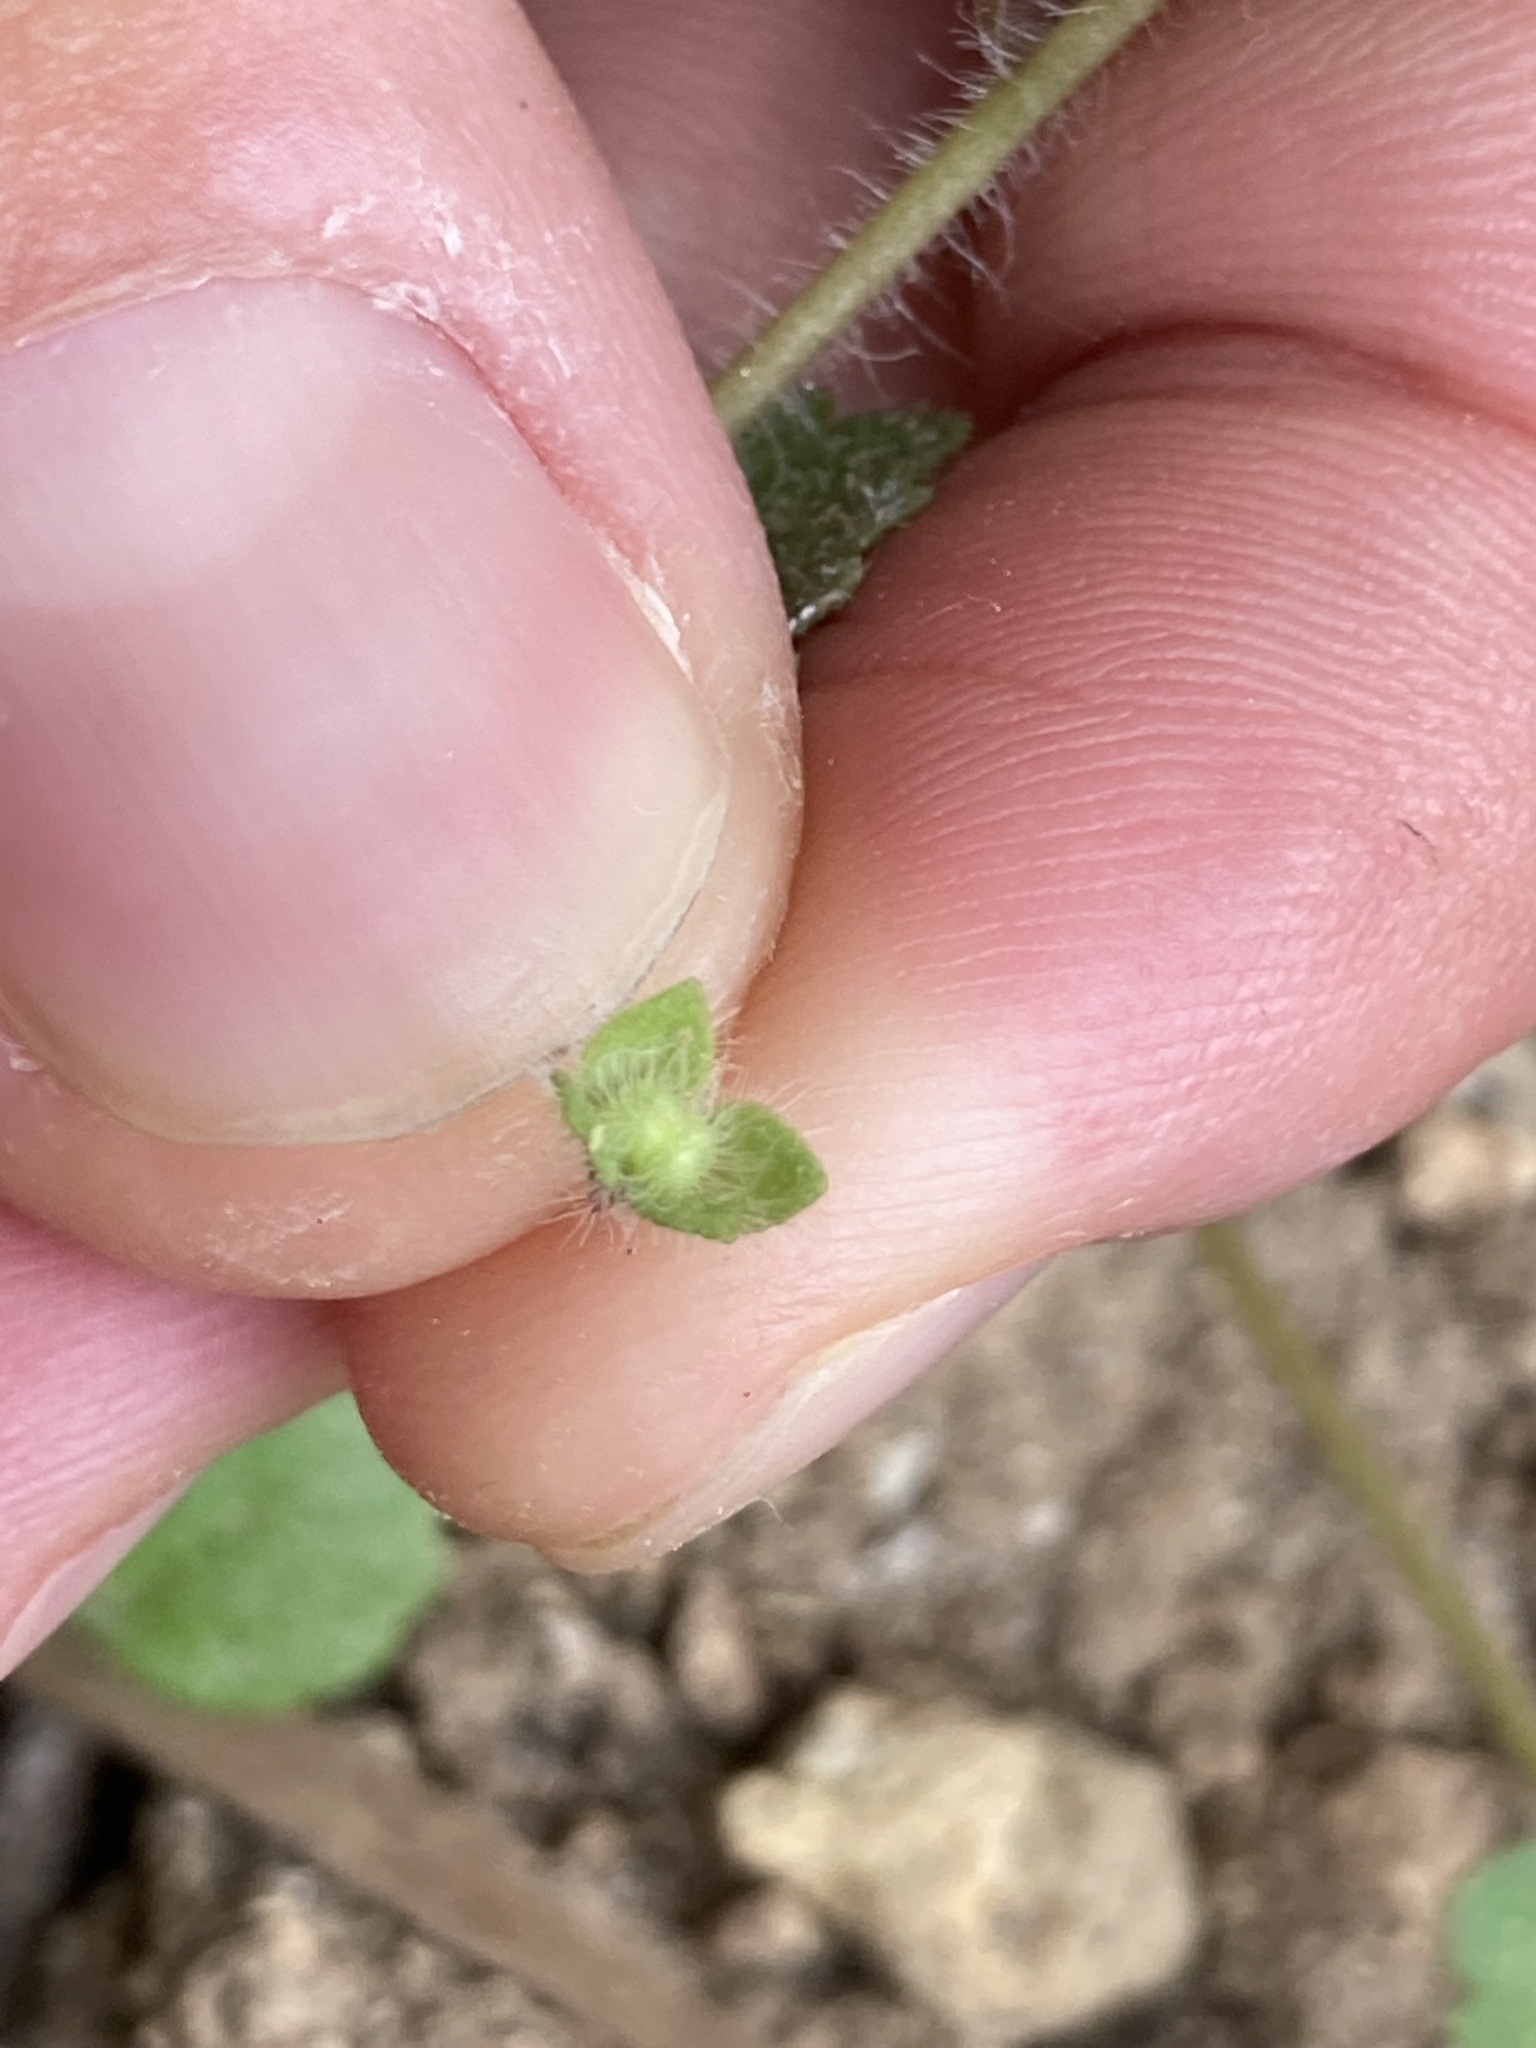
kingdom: Plantae
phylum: Tracheophyta
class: Magnoliopsida
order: Lamiales
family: Plantaginaceae
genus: Veronica
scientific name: Veronica cymbalaria
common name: Pale speedwell
